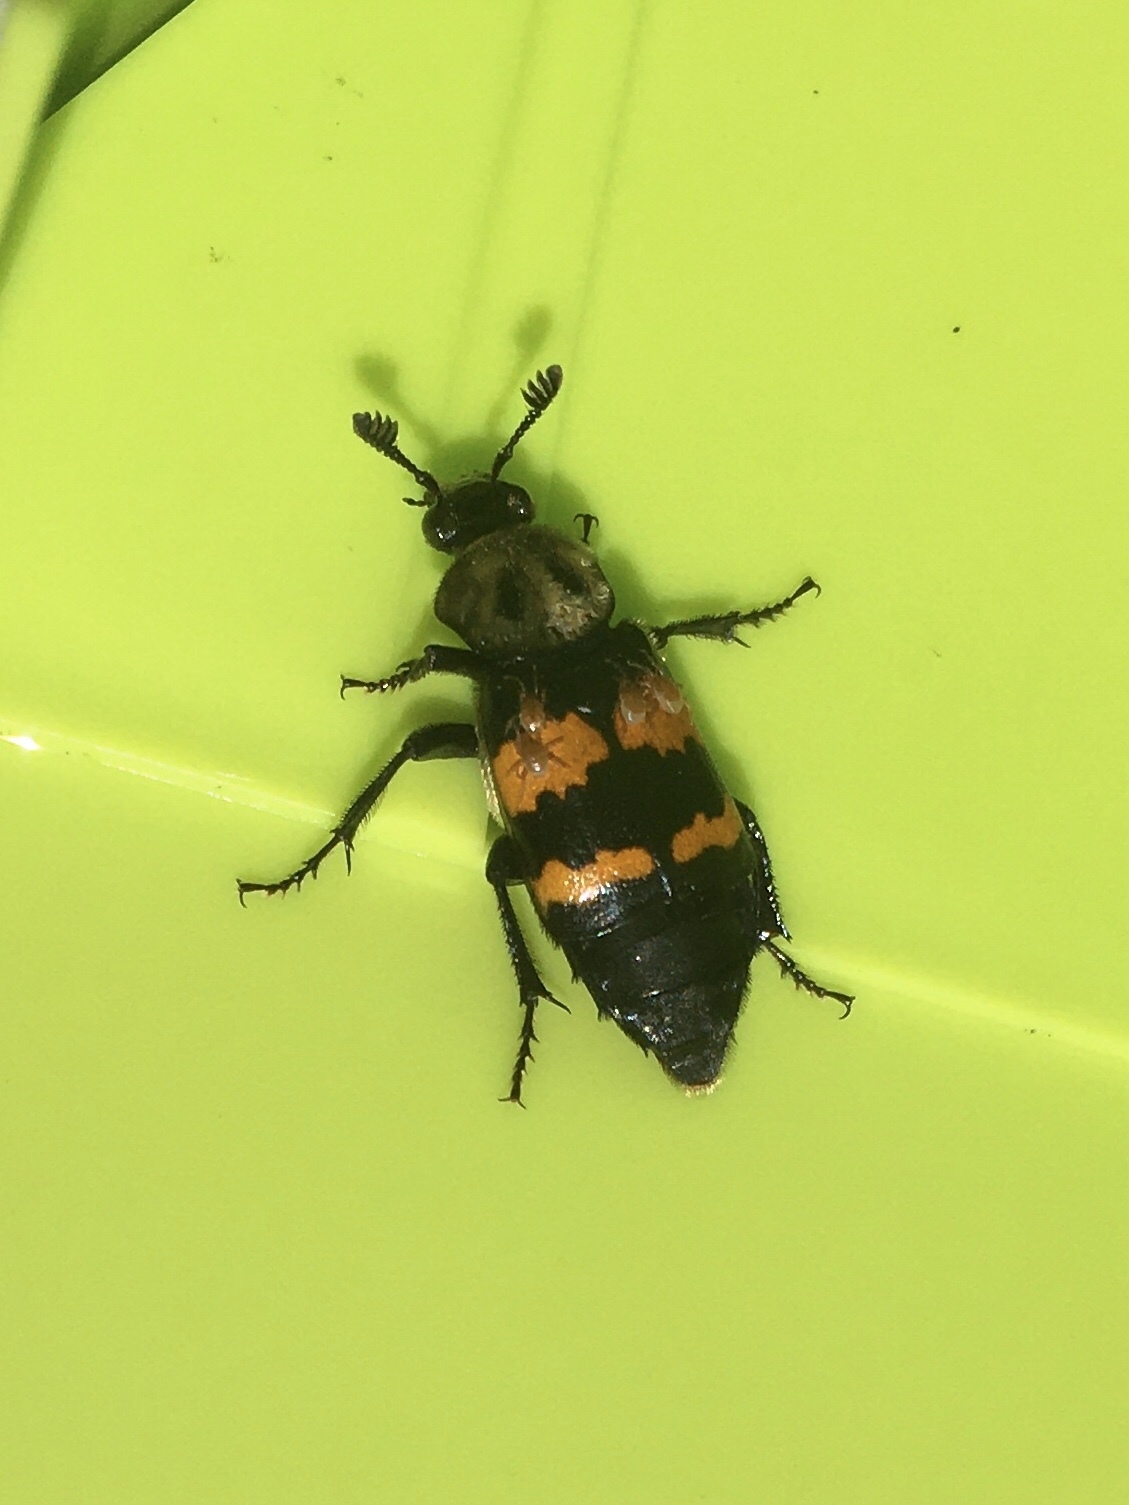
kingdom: Animalia
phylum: Arthropoda
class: Arachnida
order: Mesostigmata
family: Parasitidae
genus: Poecilochirus
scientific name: Poecilochirus
